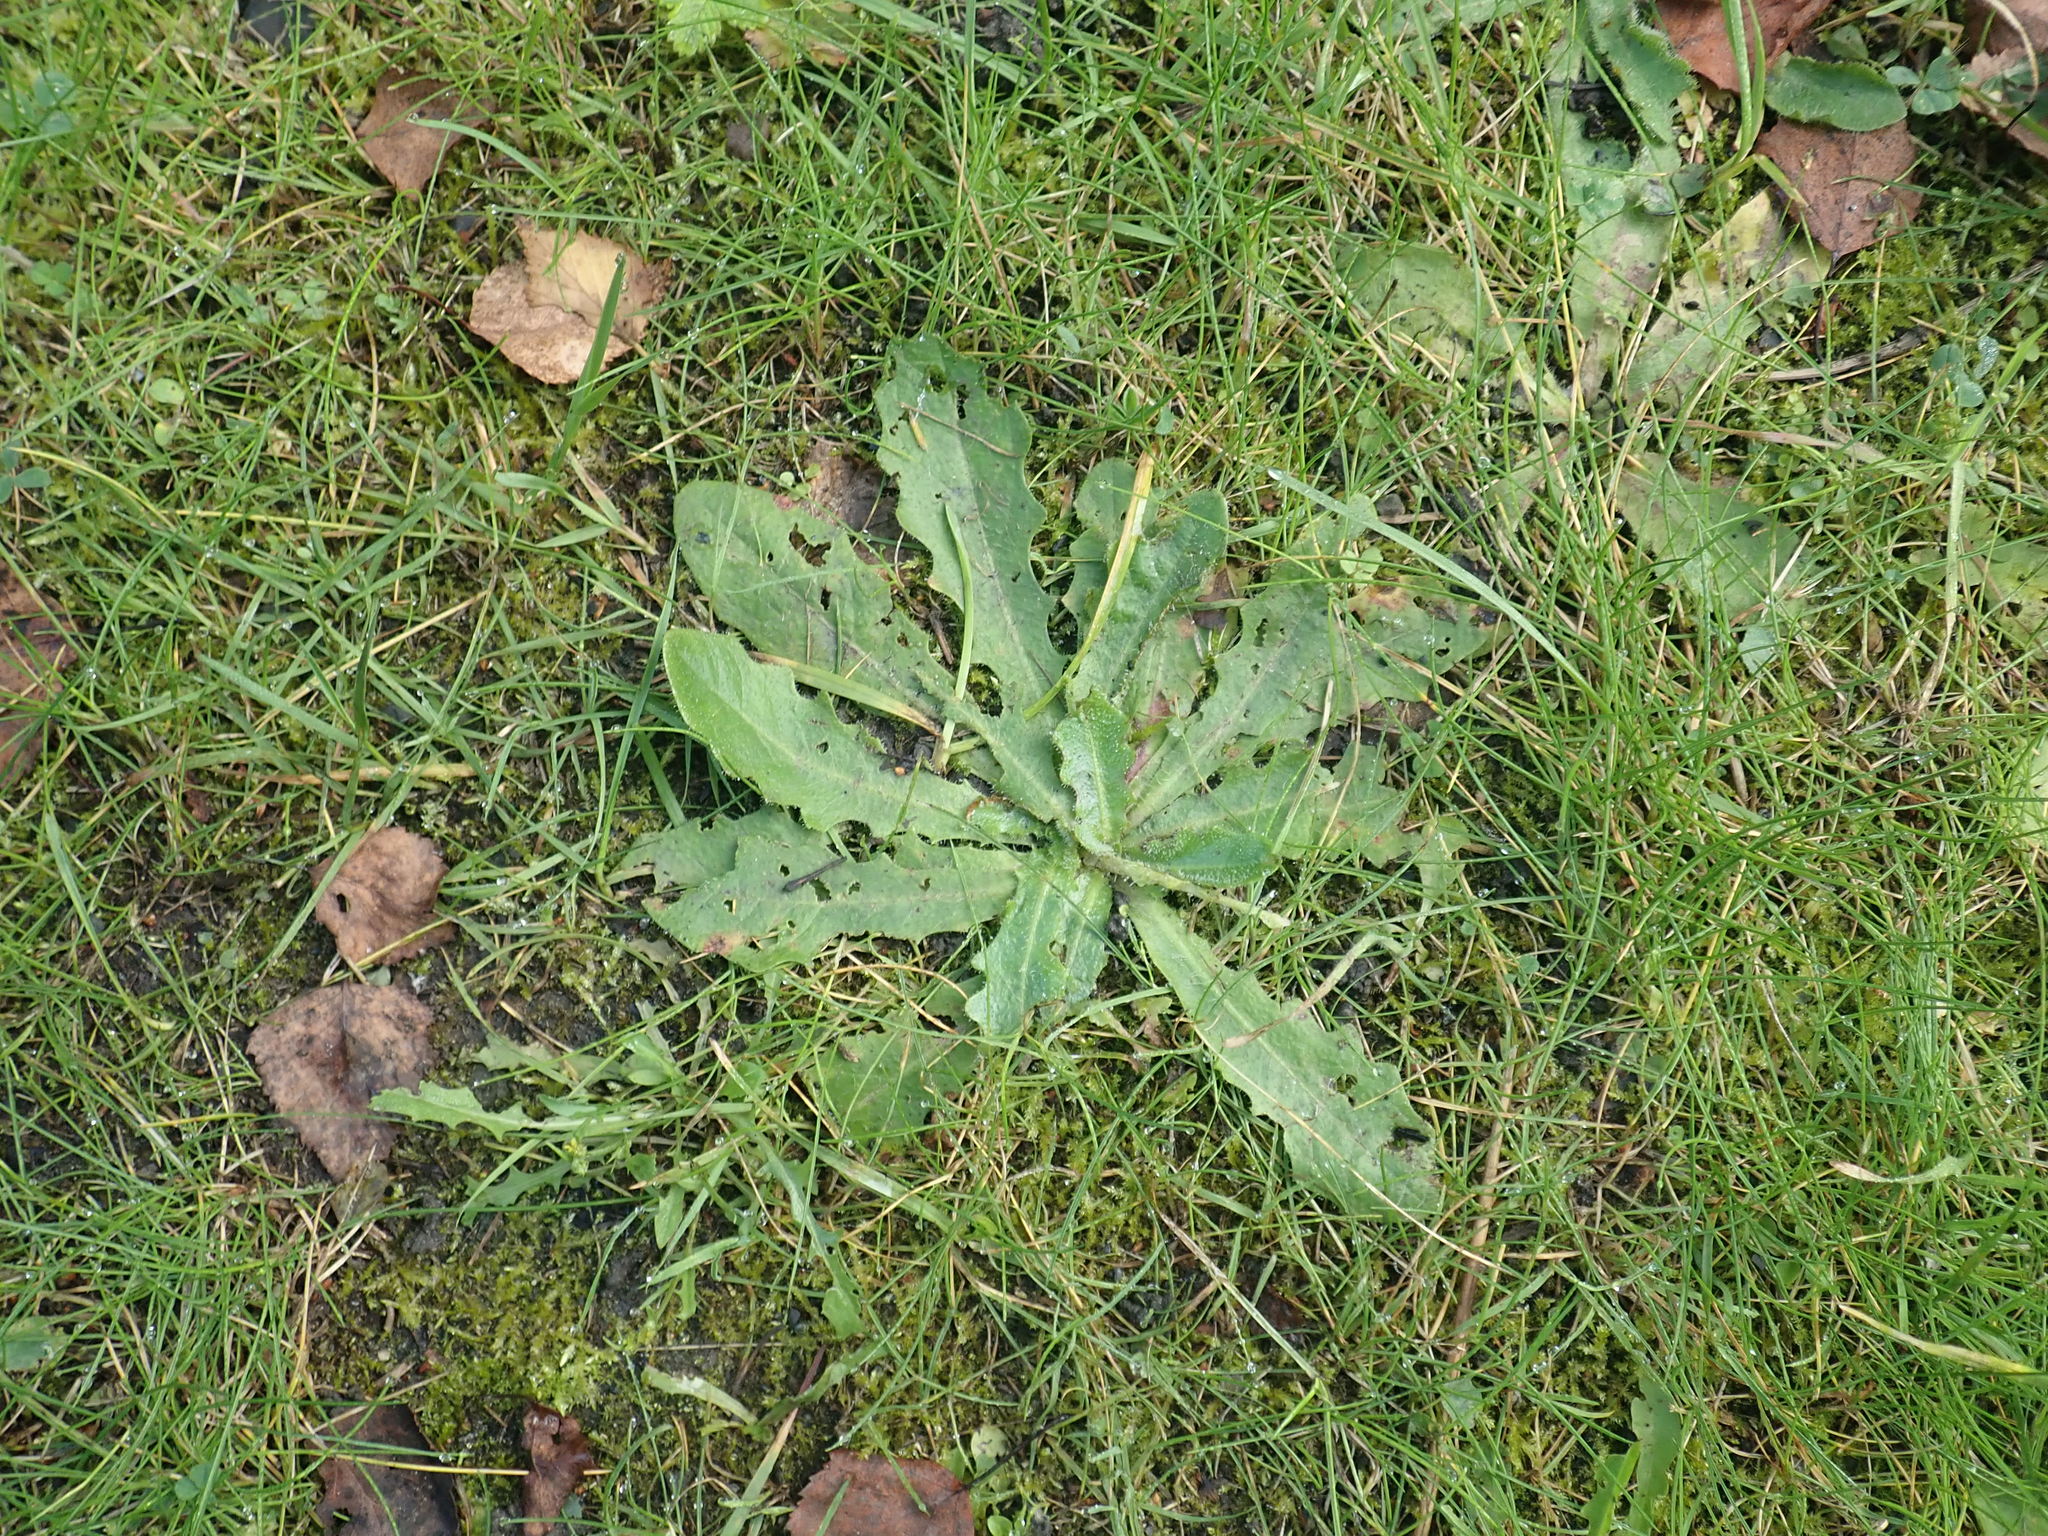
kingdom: Plantae
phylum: Tracheophyta
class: Magnoliopsida
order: Asterales
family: Asteraceae
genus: Hypochaeris
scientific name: Hypochaeris radicata
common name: Flatweed
